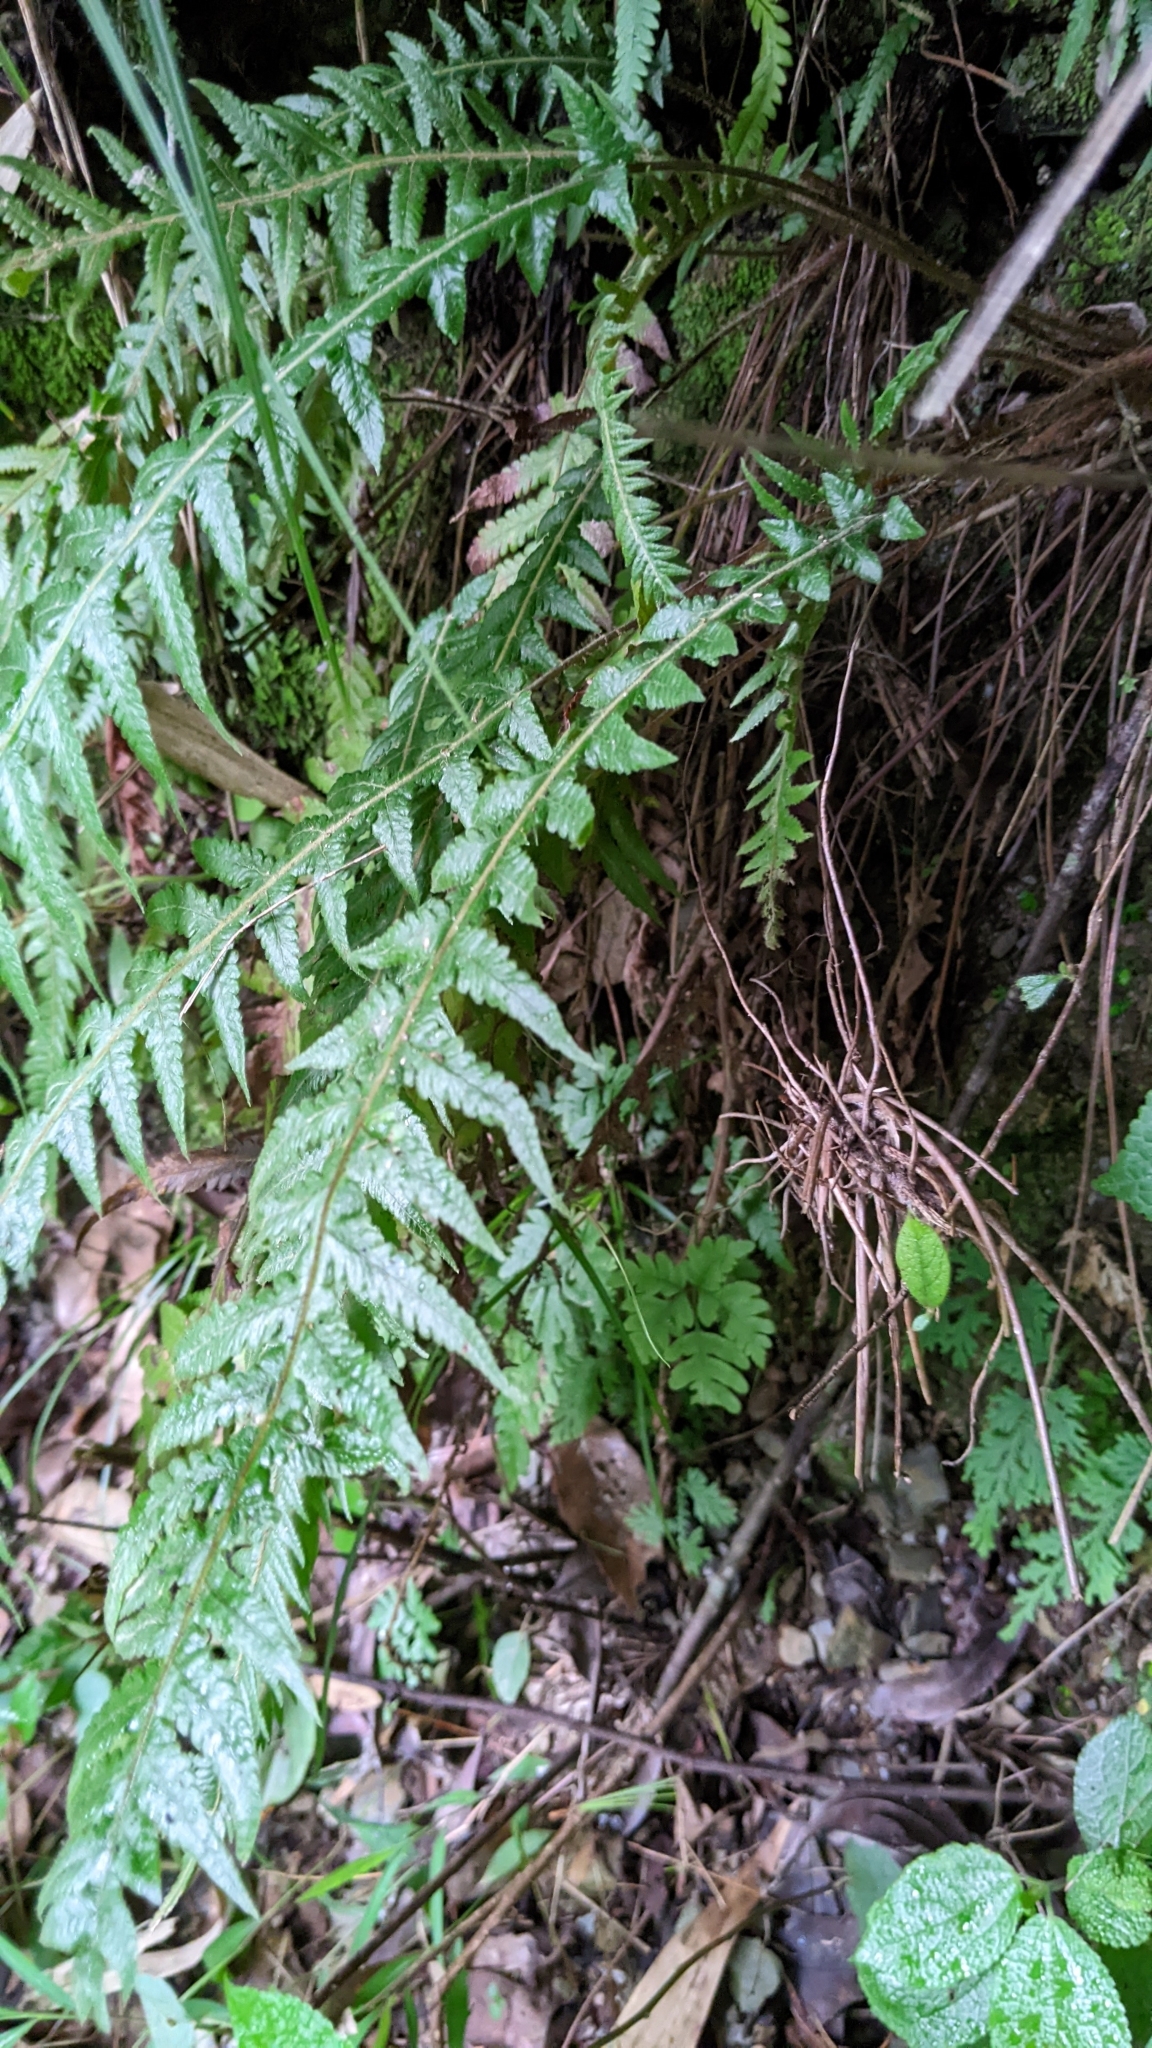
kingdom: Plantae
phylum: Tracheophyta
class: Polypodiopsida
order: Polypodiales
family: Thelypteridaceae
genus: Phegopteris
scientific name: Phegopteris decursive-pinnata
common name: Japanese beech fern
